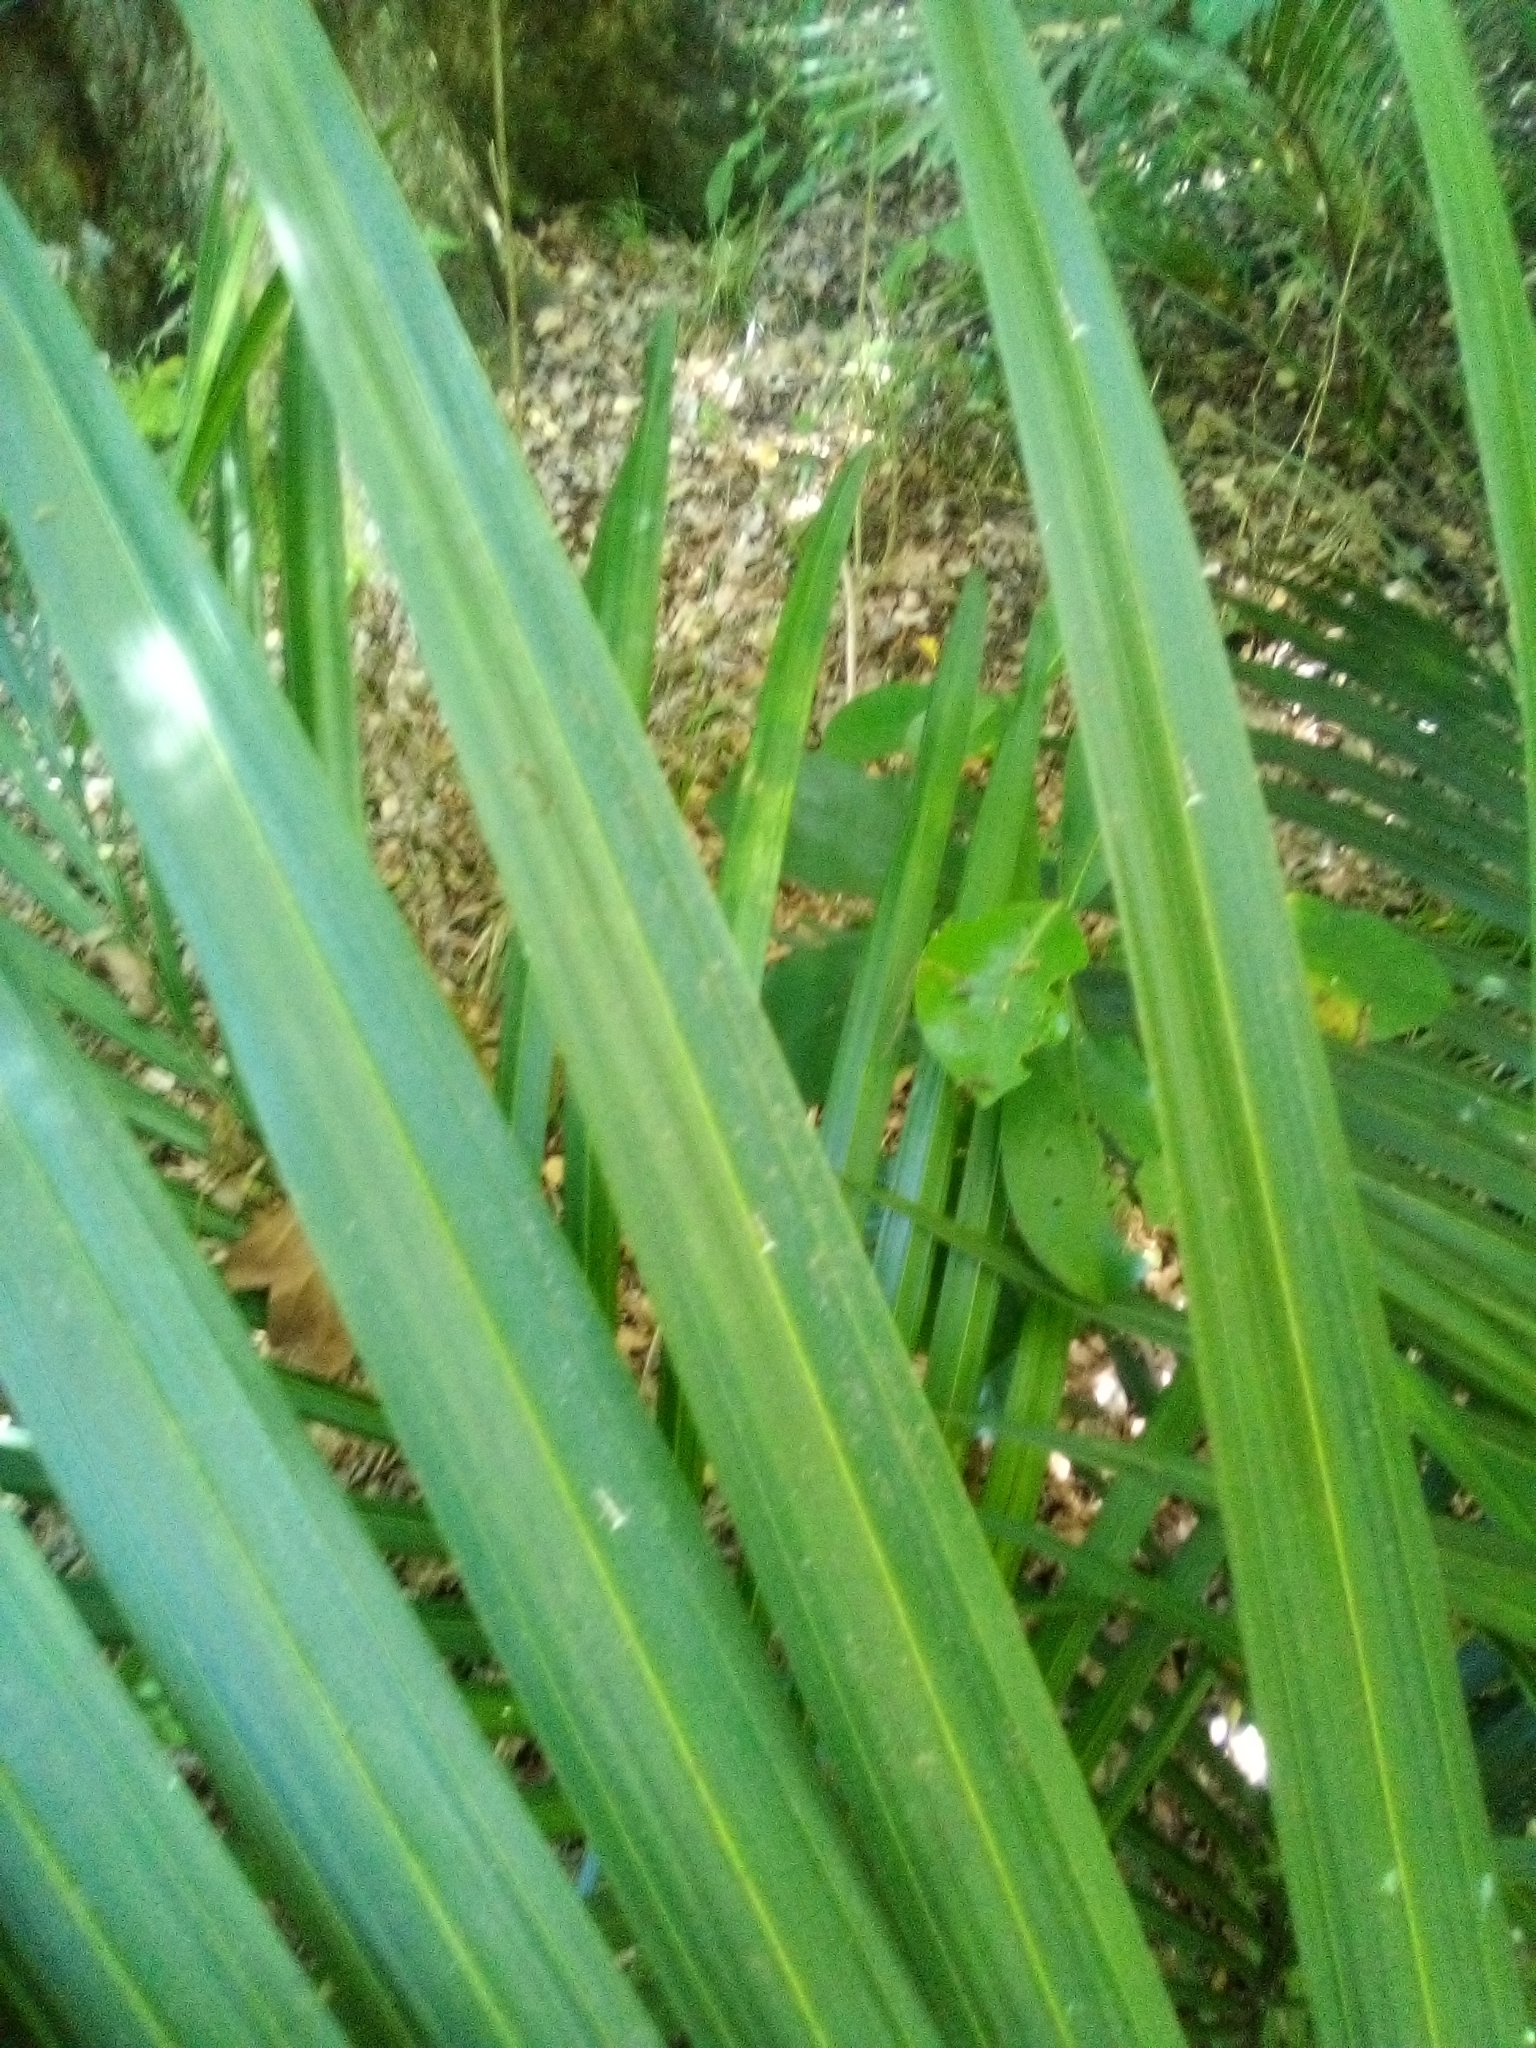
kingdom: Animalia
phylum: Arthropoda
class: Insecta
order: Lepidoptera
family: Roeslerstammiidae
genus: Vanicela
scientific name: Vanicela disjunctella
